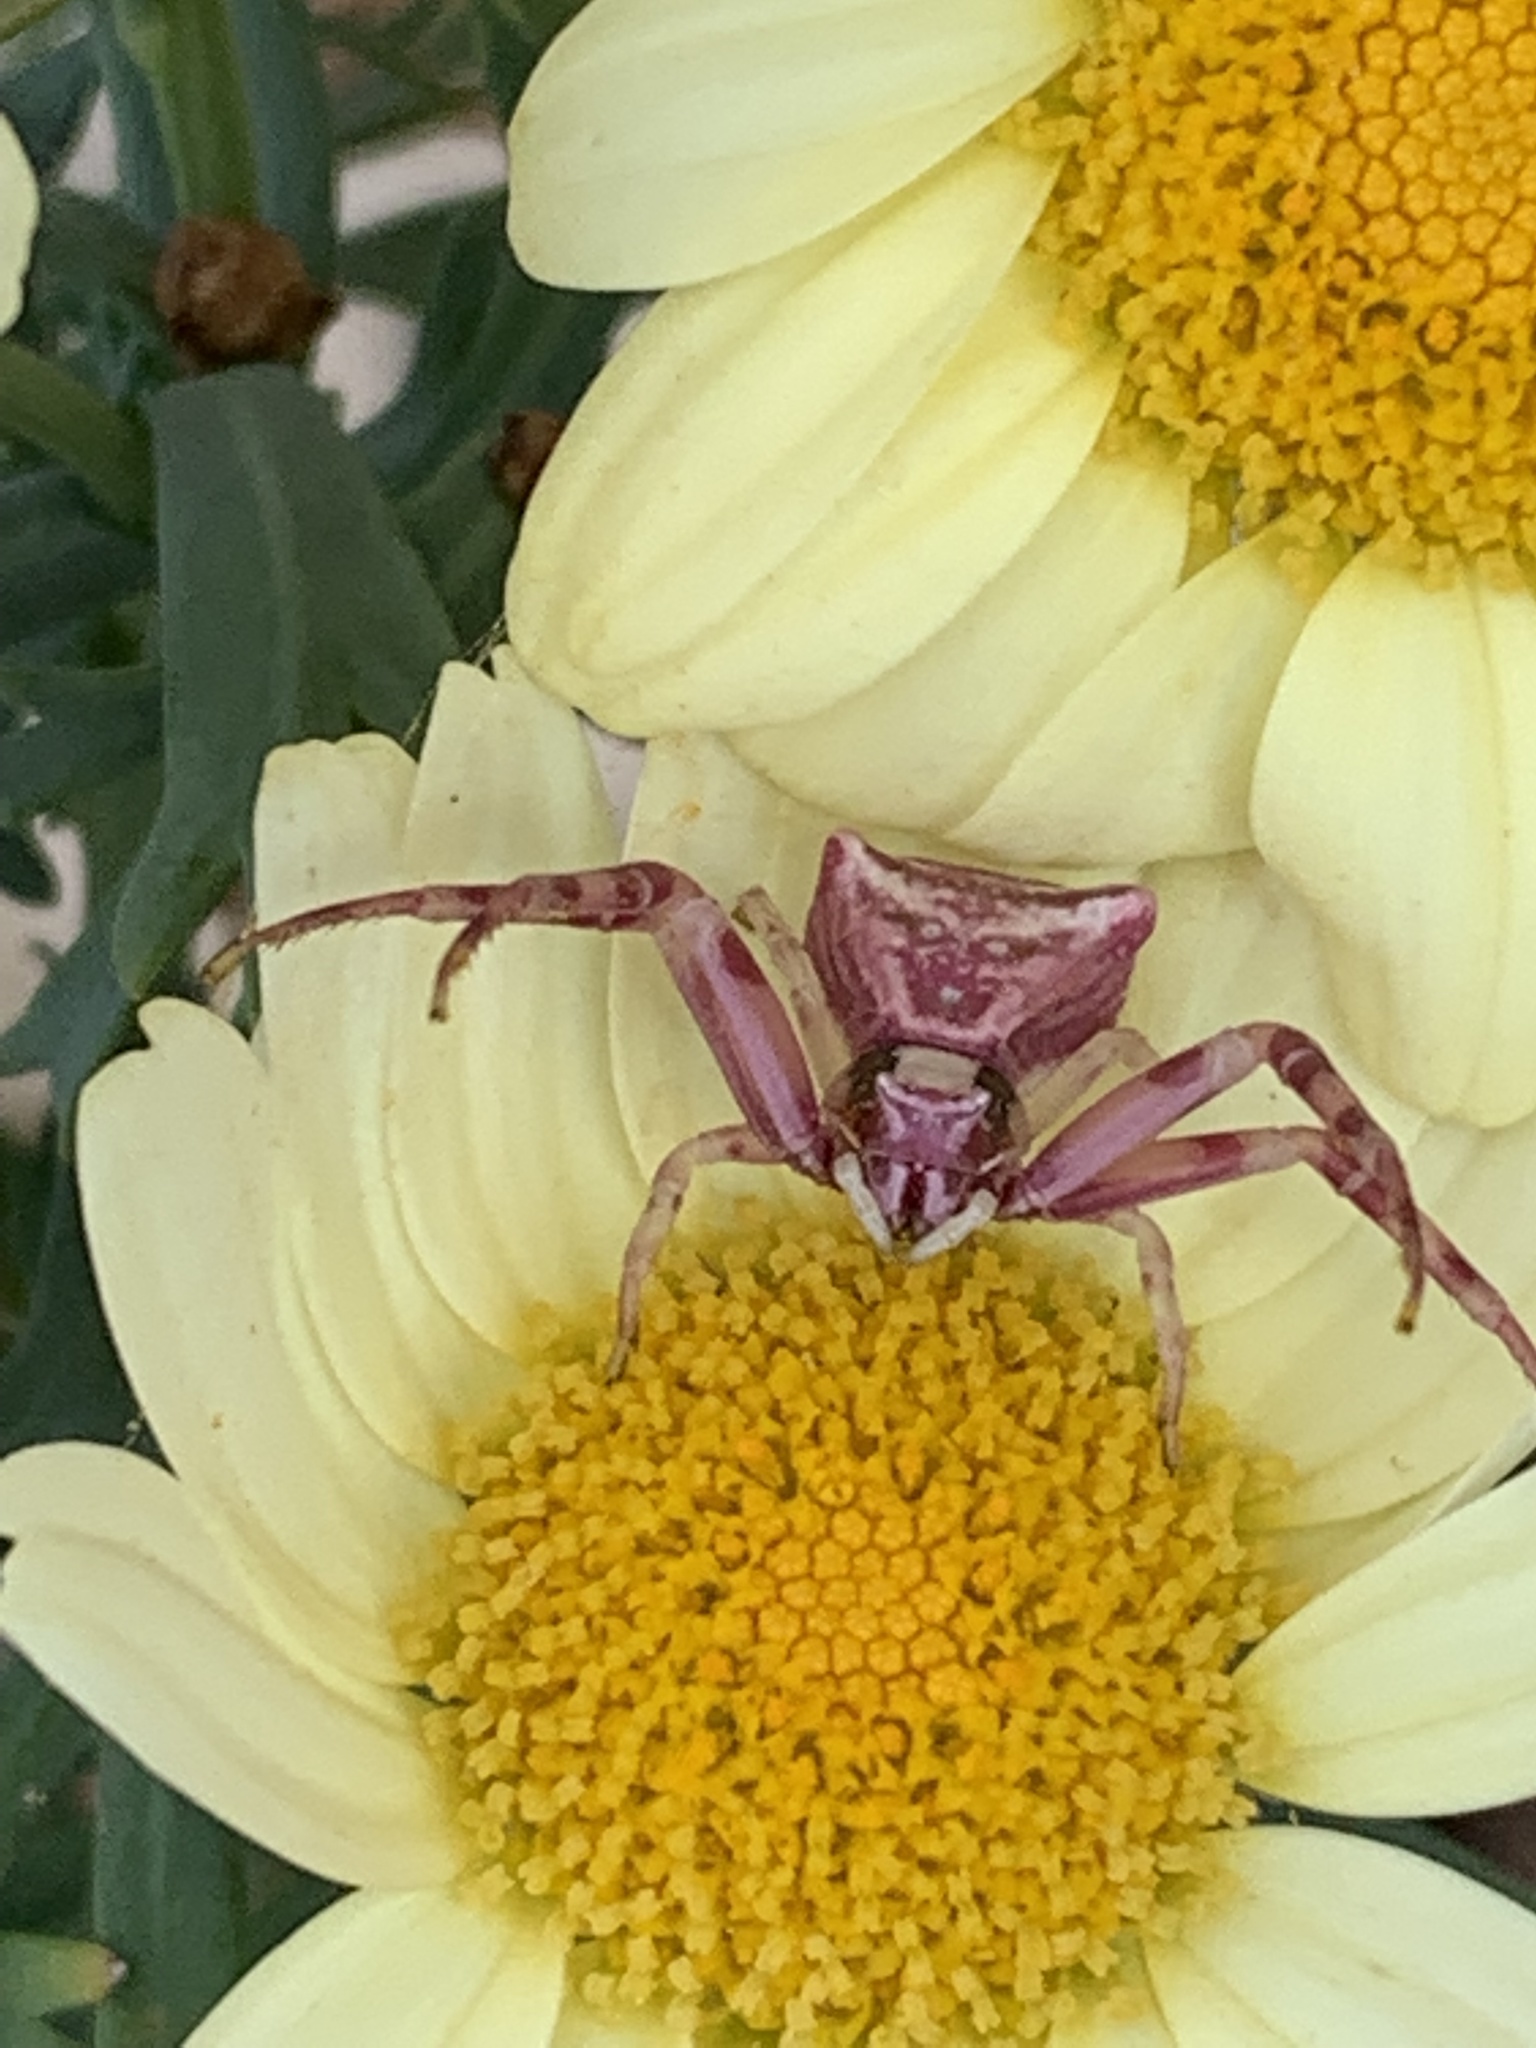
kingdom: Animalia
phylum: Arthropoda
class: Arachnida
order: Araneae
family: Thomisidae
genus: Thomisus
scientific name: Thomisus onustus
